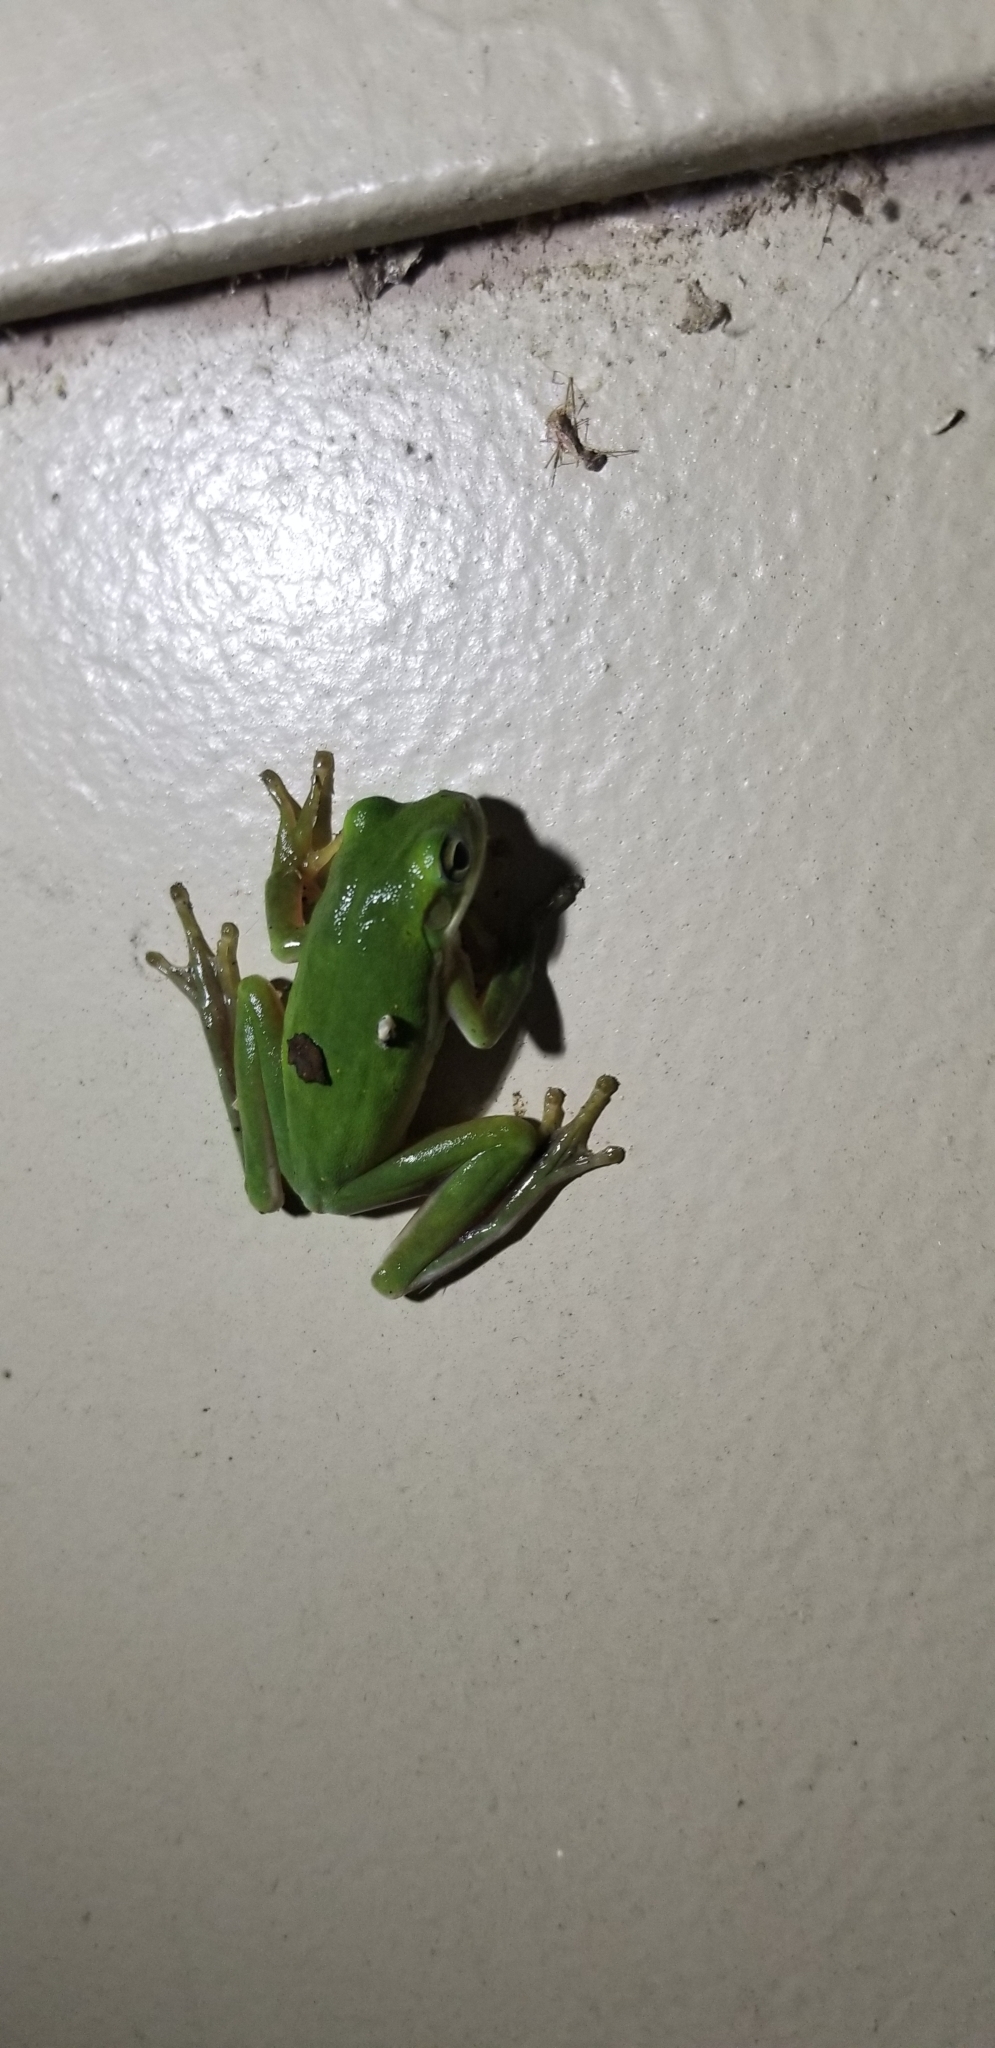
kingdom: Animalia
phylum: Chordata
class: Amphibia
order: Anura
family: Hylidae
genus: Dryophytes
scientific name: Dryophytes cinereus
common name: Green treefrog
